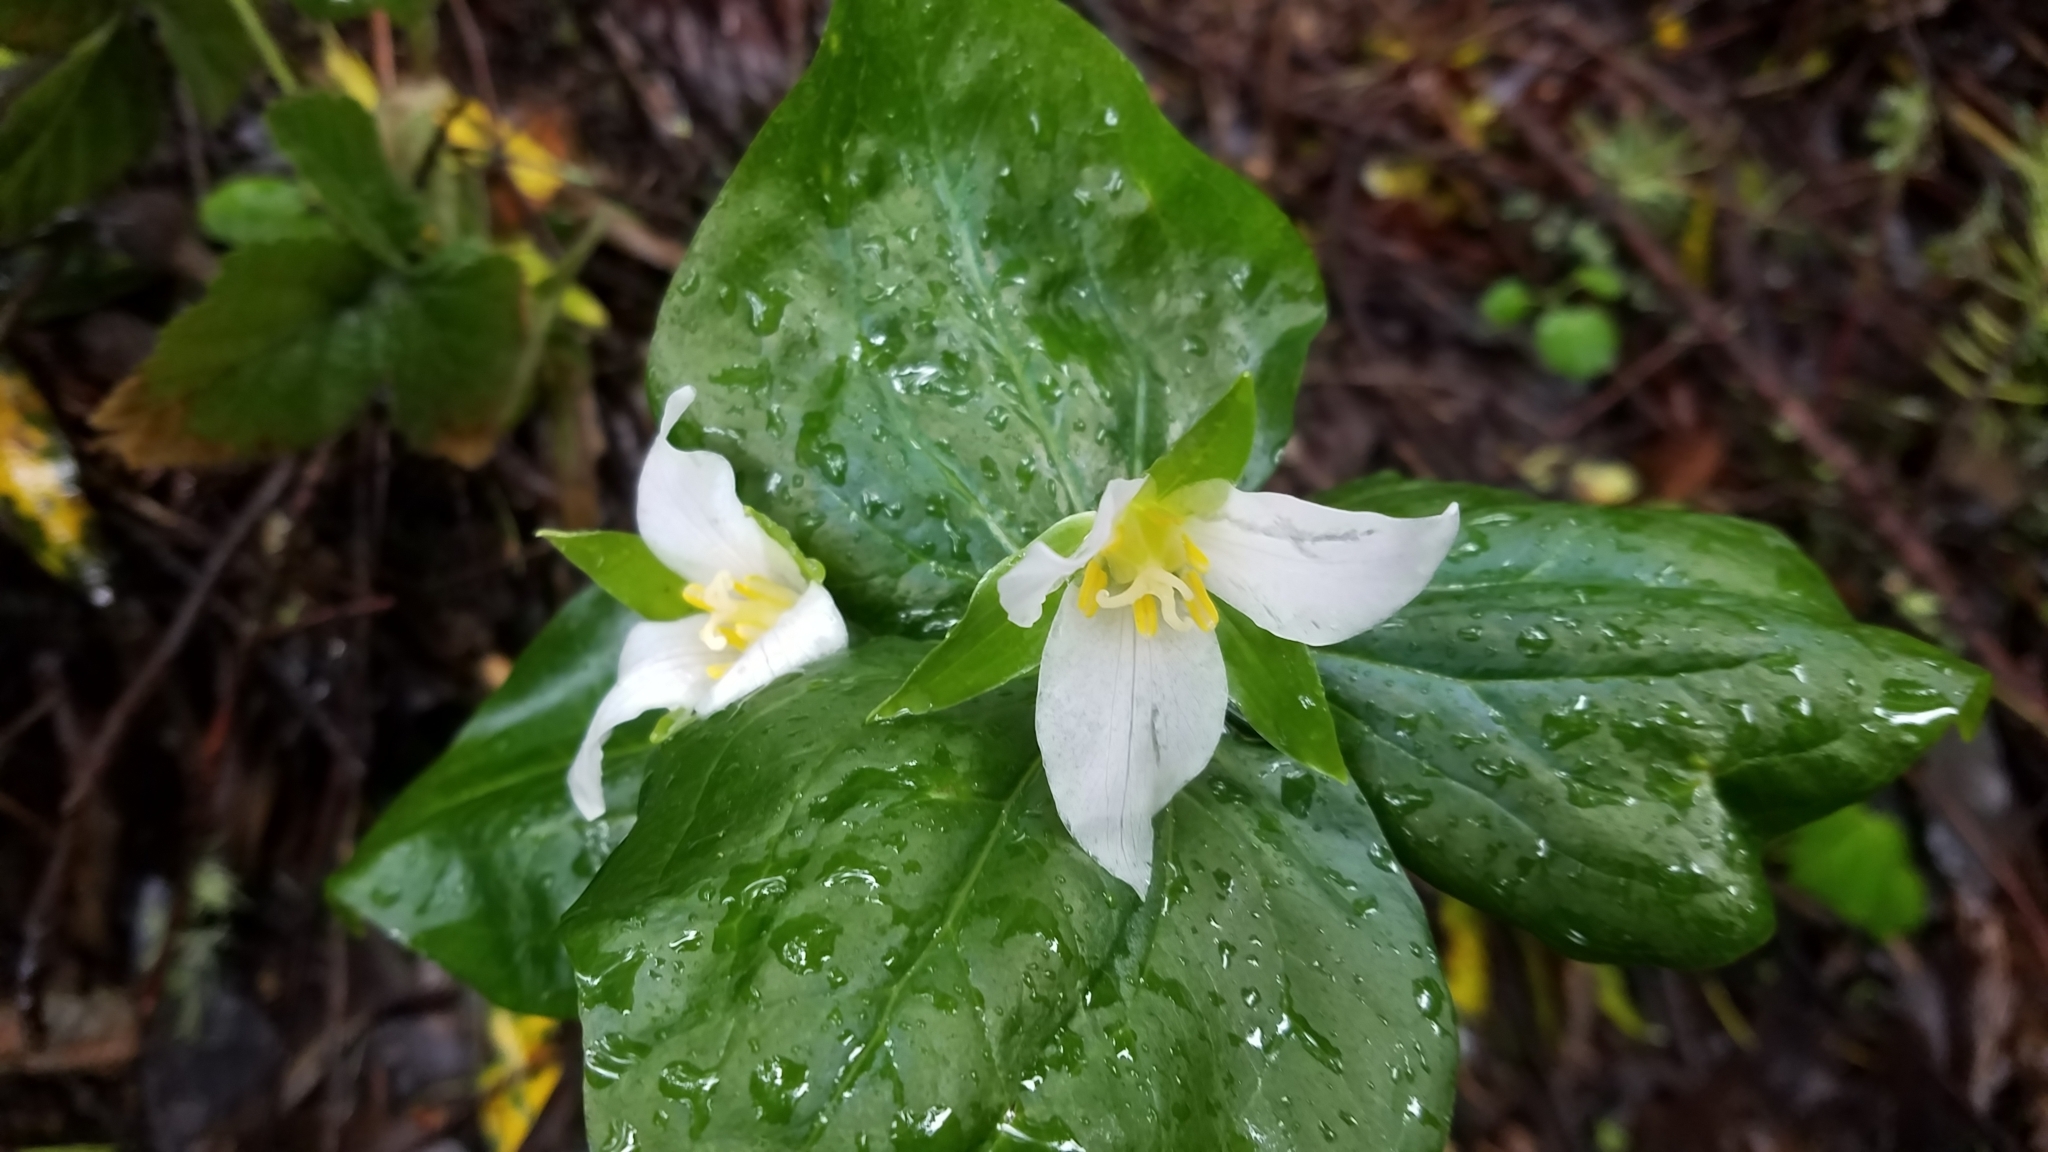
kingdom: Plantae
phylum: Tracheophyta
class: Liliopsida
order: Liliales
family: Melanthiaceae
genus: Trillium
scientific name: Trillium ovatum
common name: Pacific trillium
